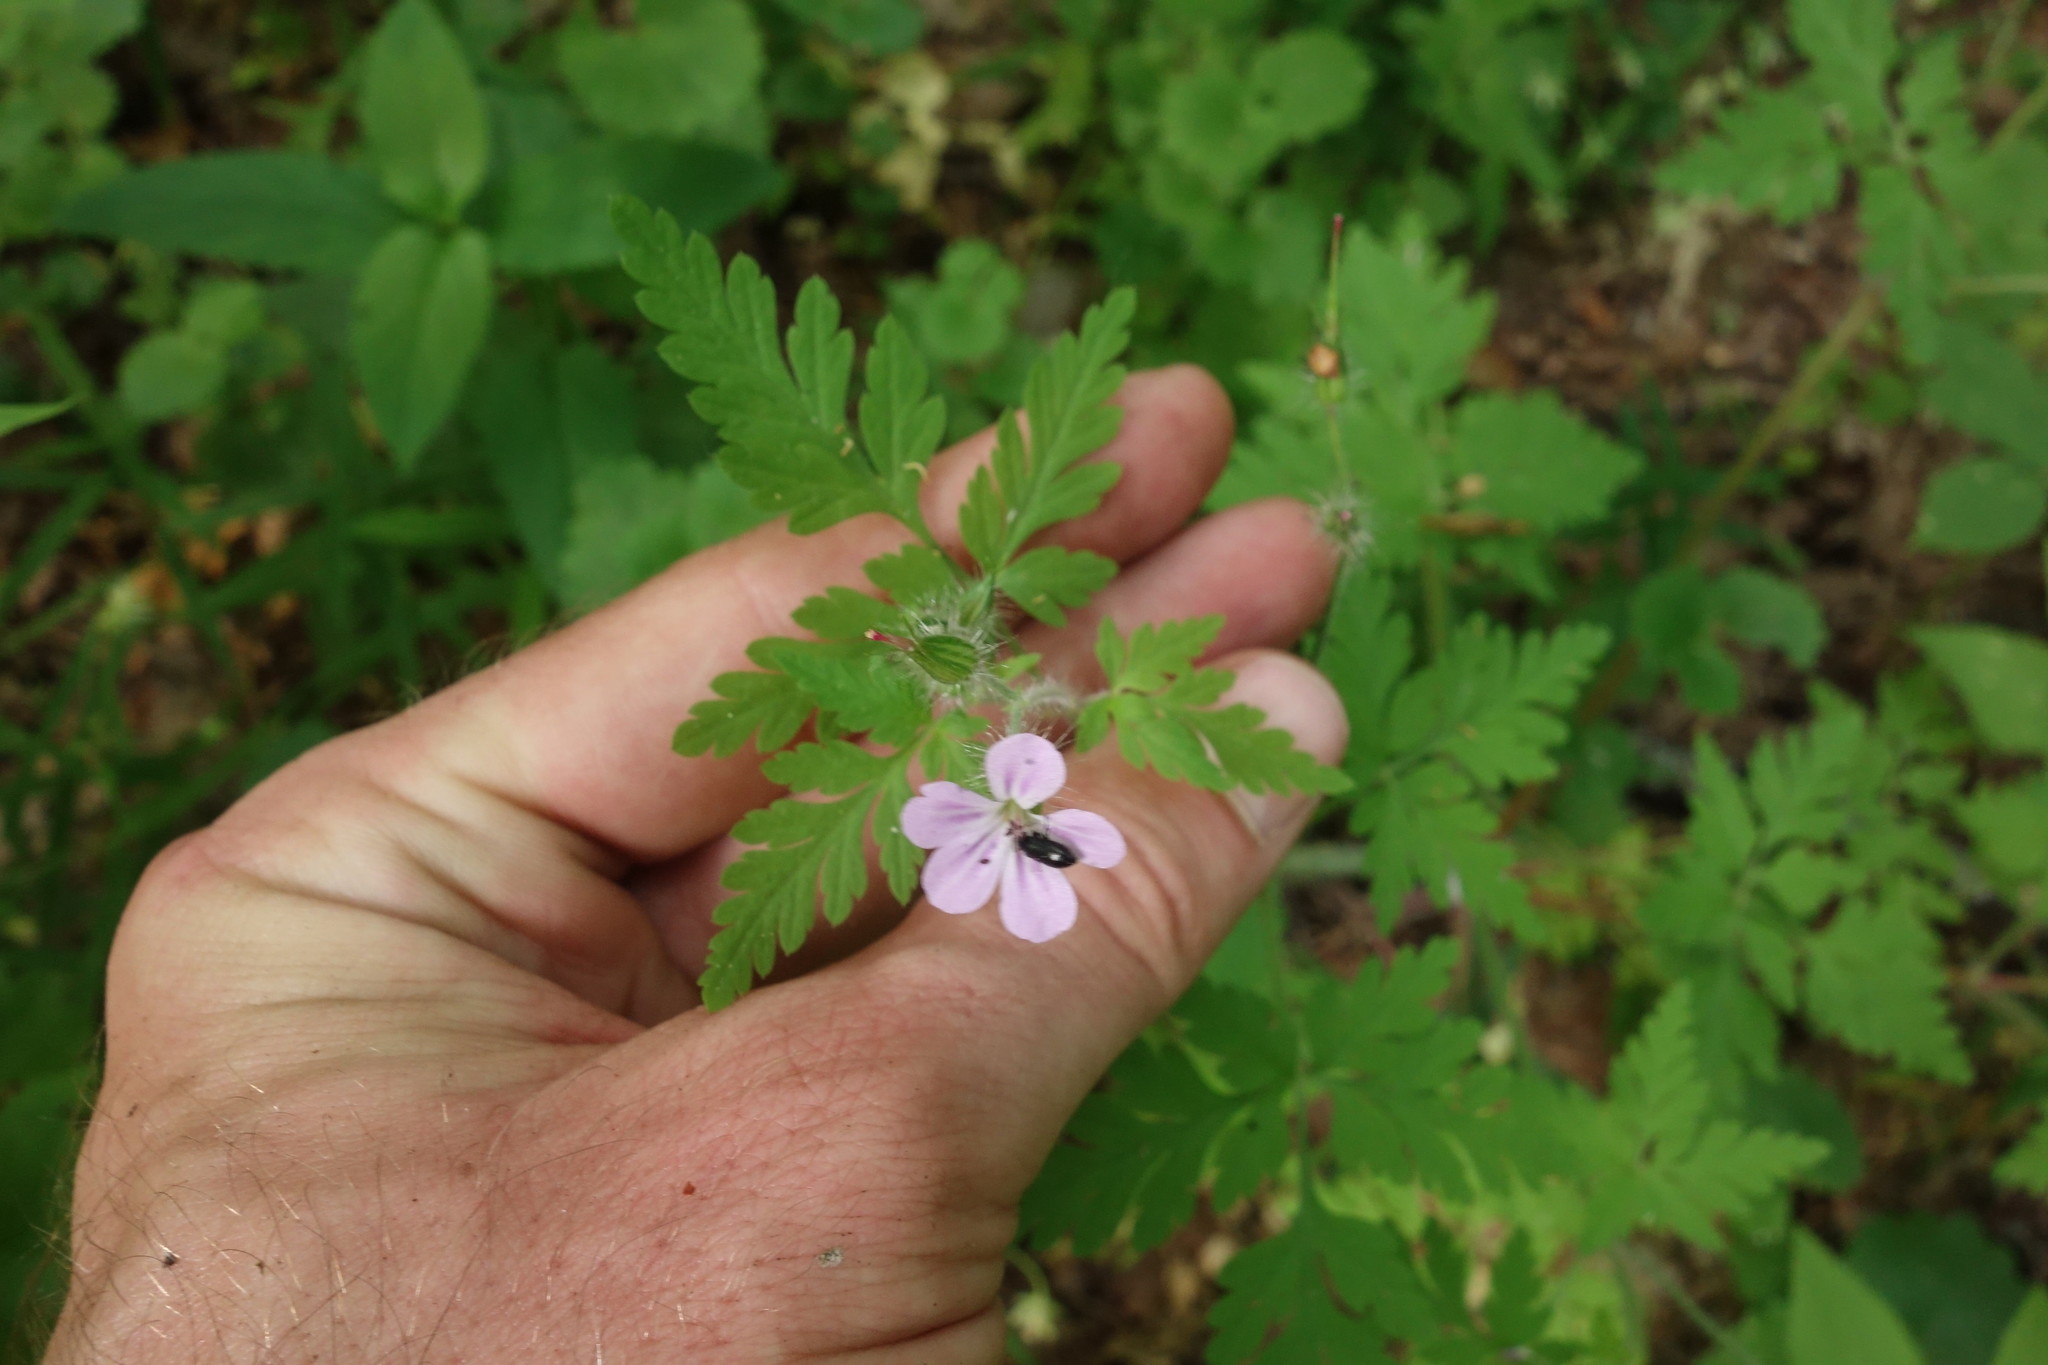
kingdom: Plantae
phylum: Tracheophyta
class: Magnoliopsida
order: Geraniales
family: Geraniaceae
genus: Geranium
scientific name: Geranium robertianum
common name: Herb-robert
